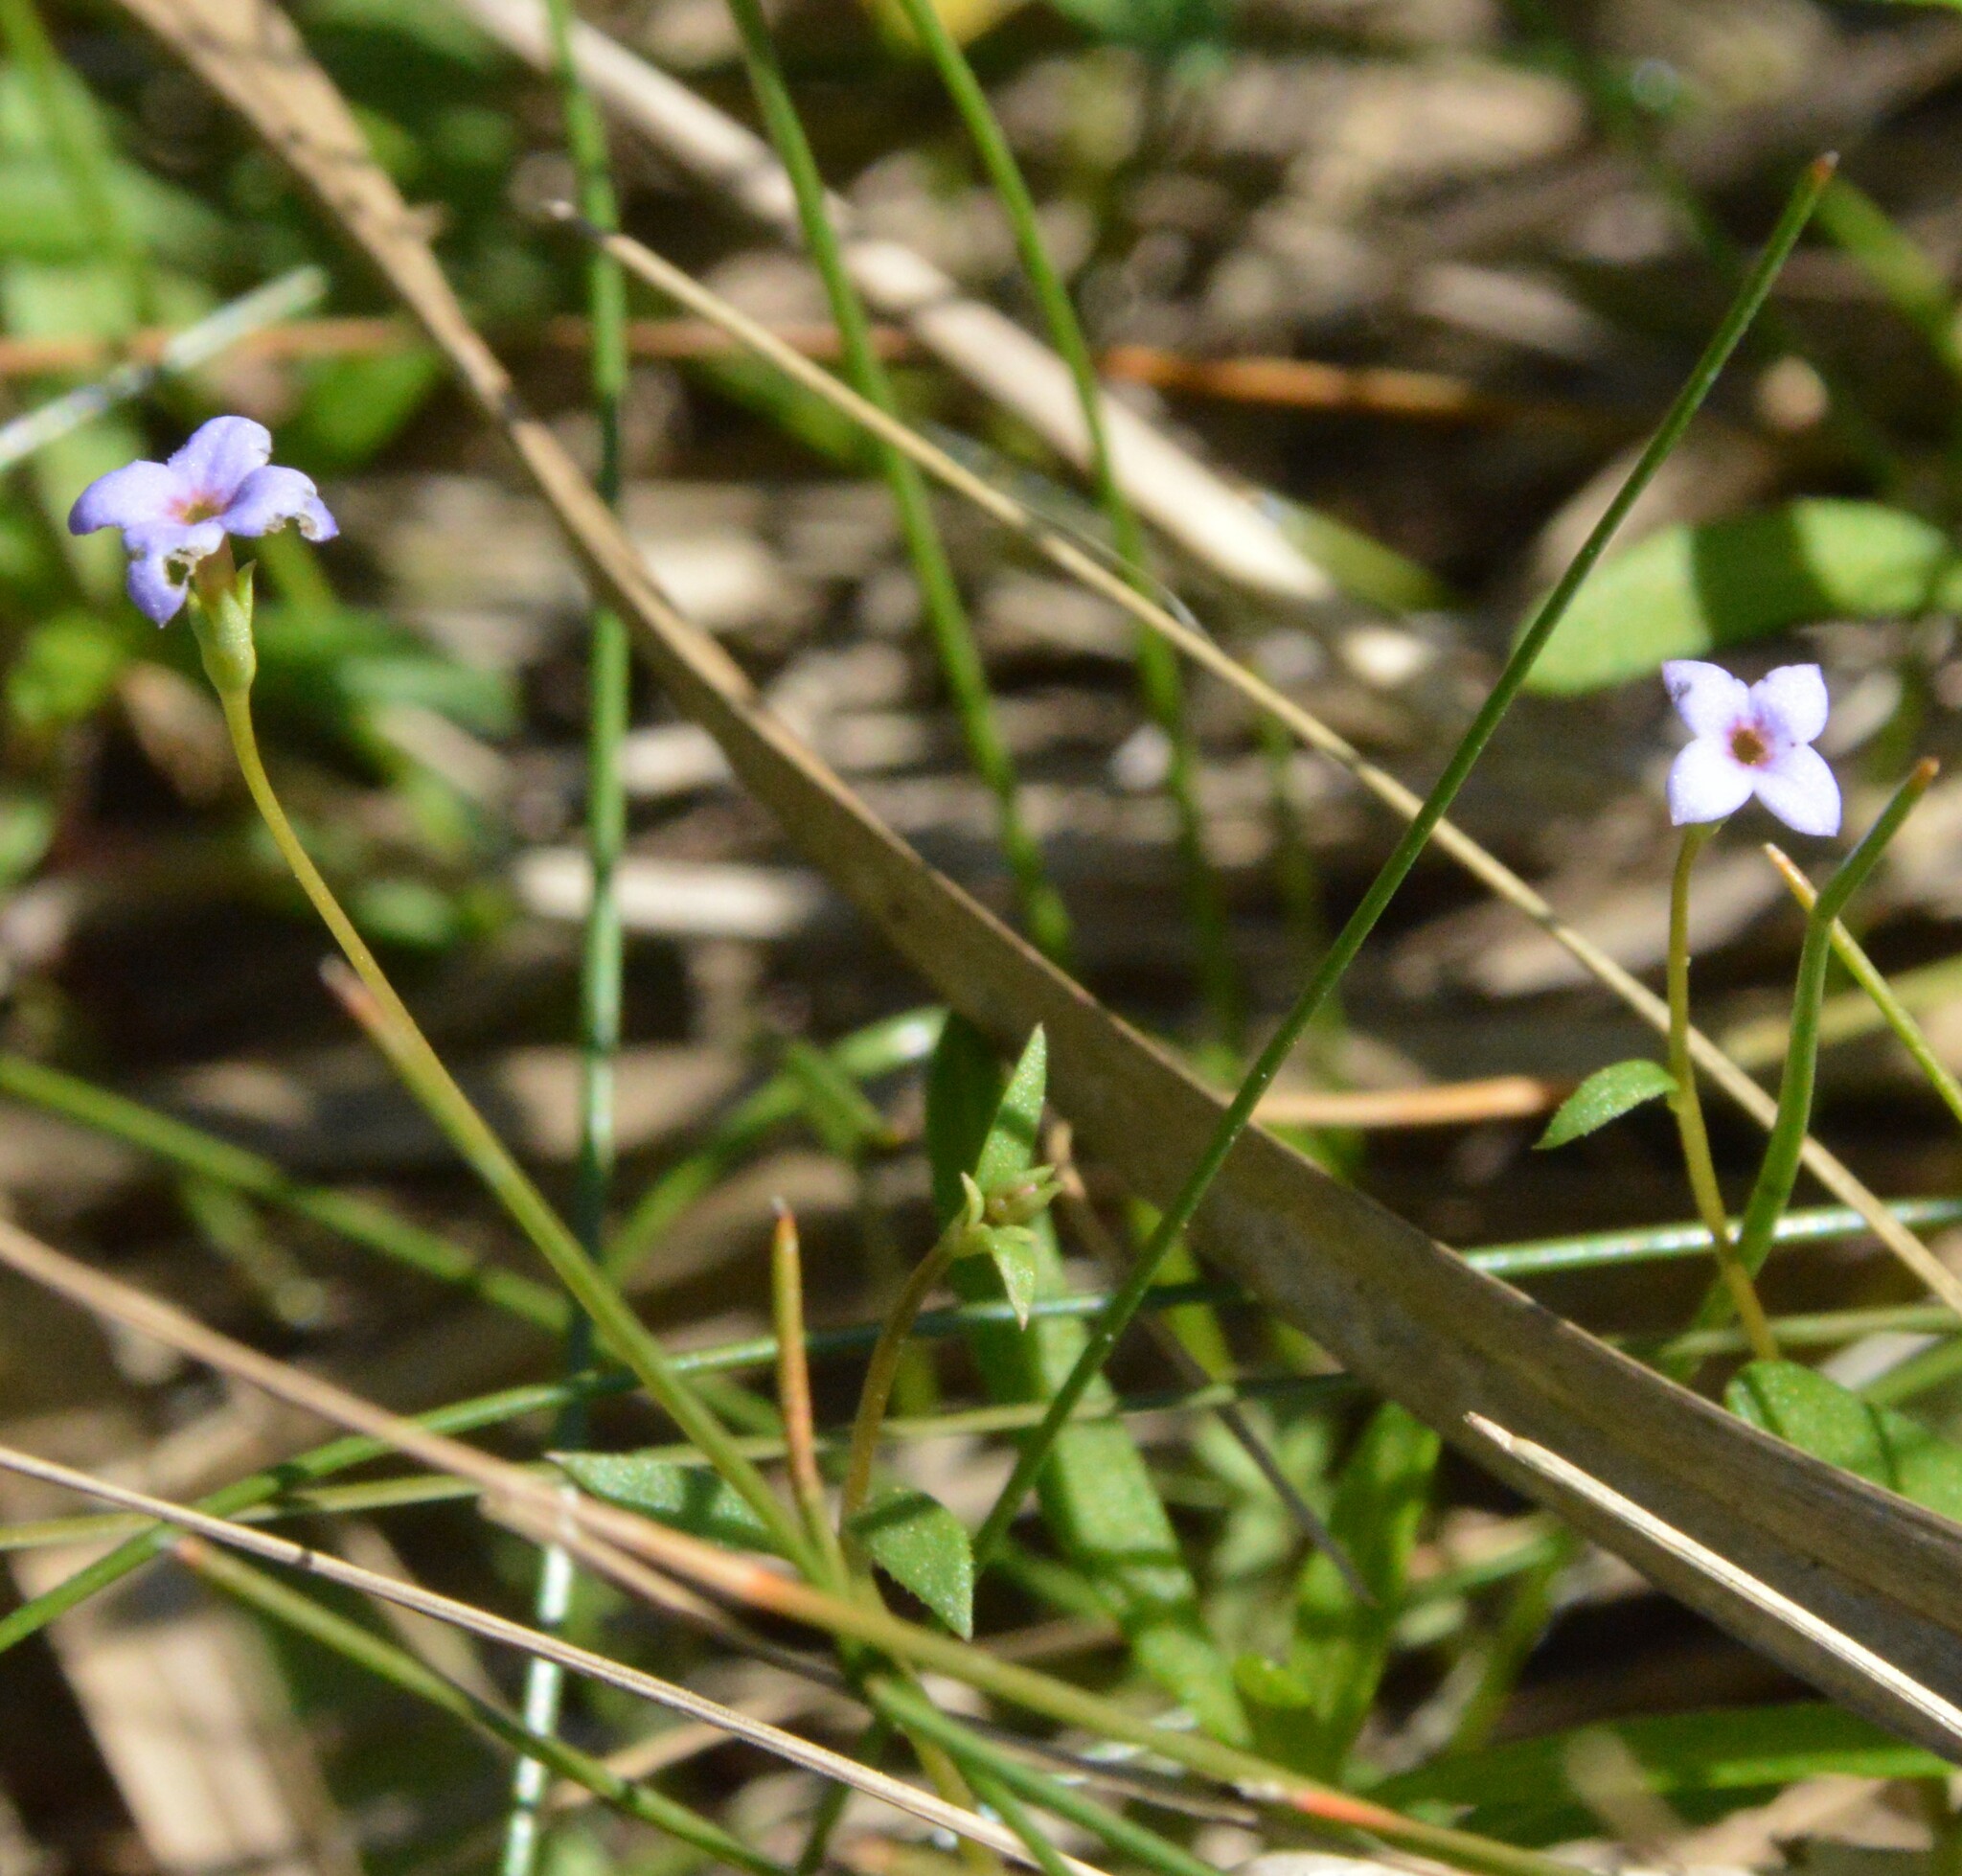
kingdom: Plantae
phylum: Tracheophyta
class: Magnoliopsida
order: Gentianales
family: Rubiaceae
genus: Houstonia
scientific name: Houstonia pusilla
